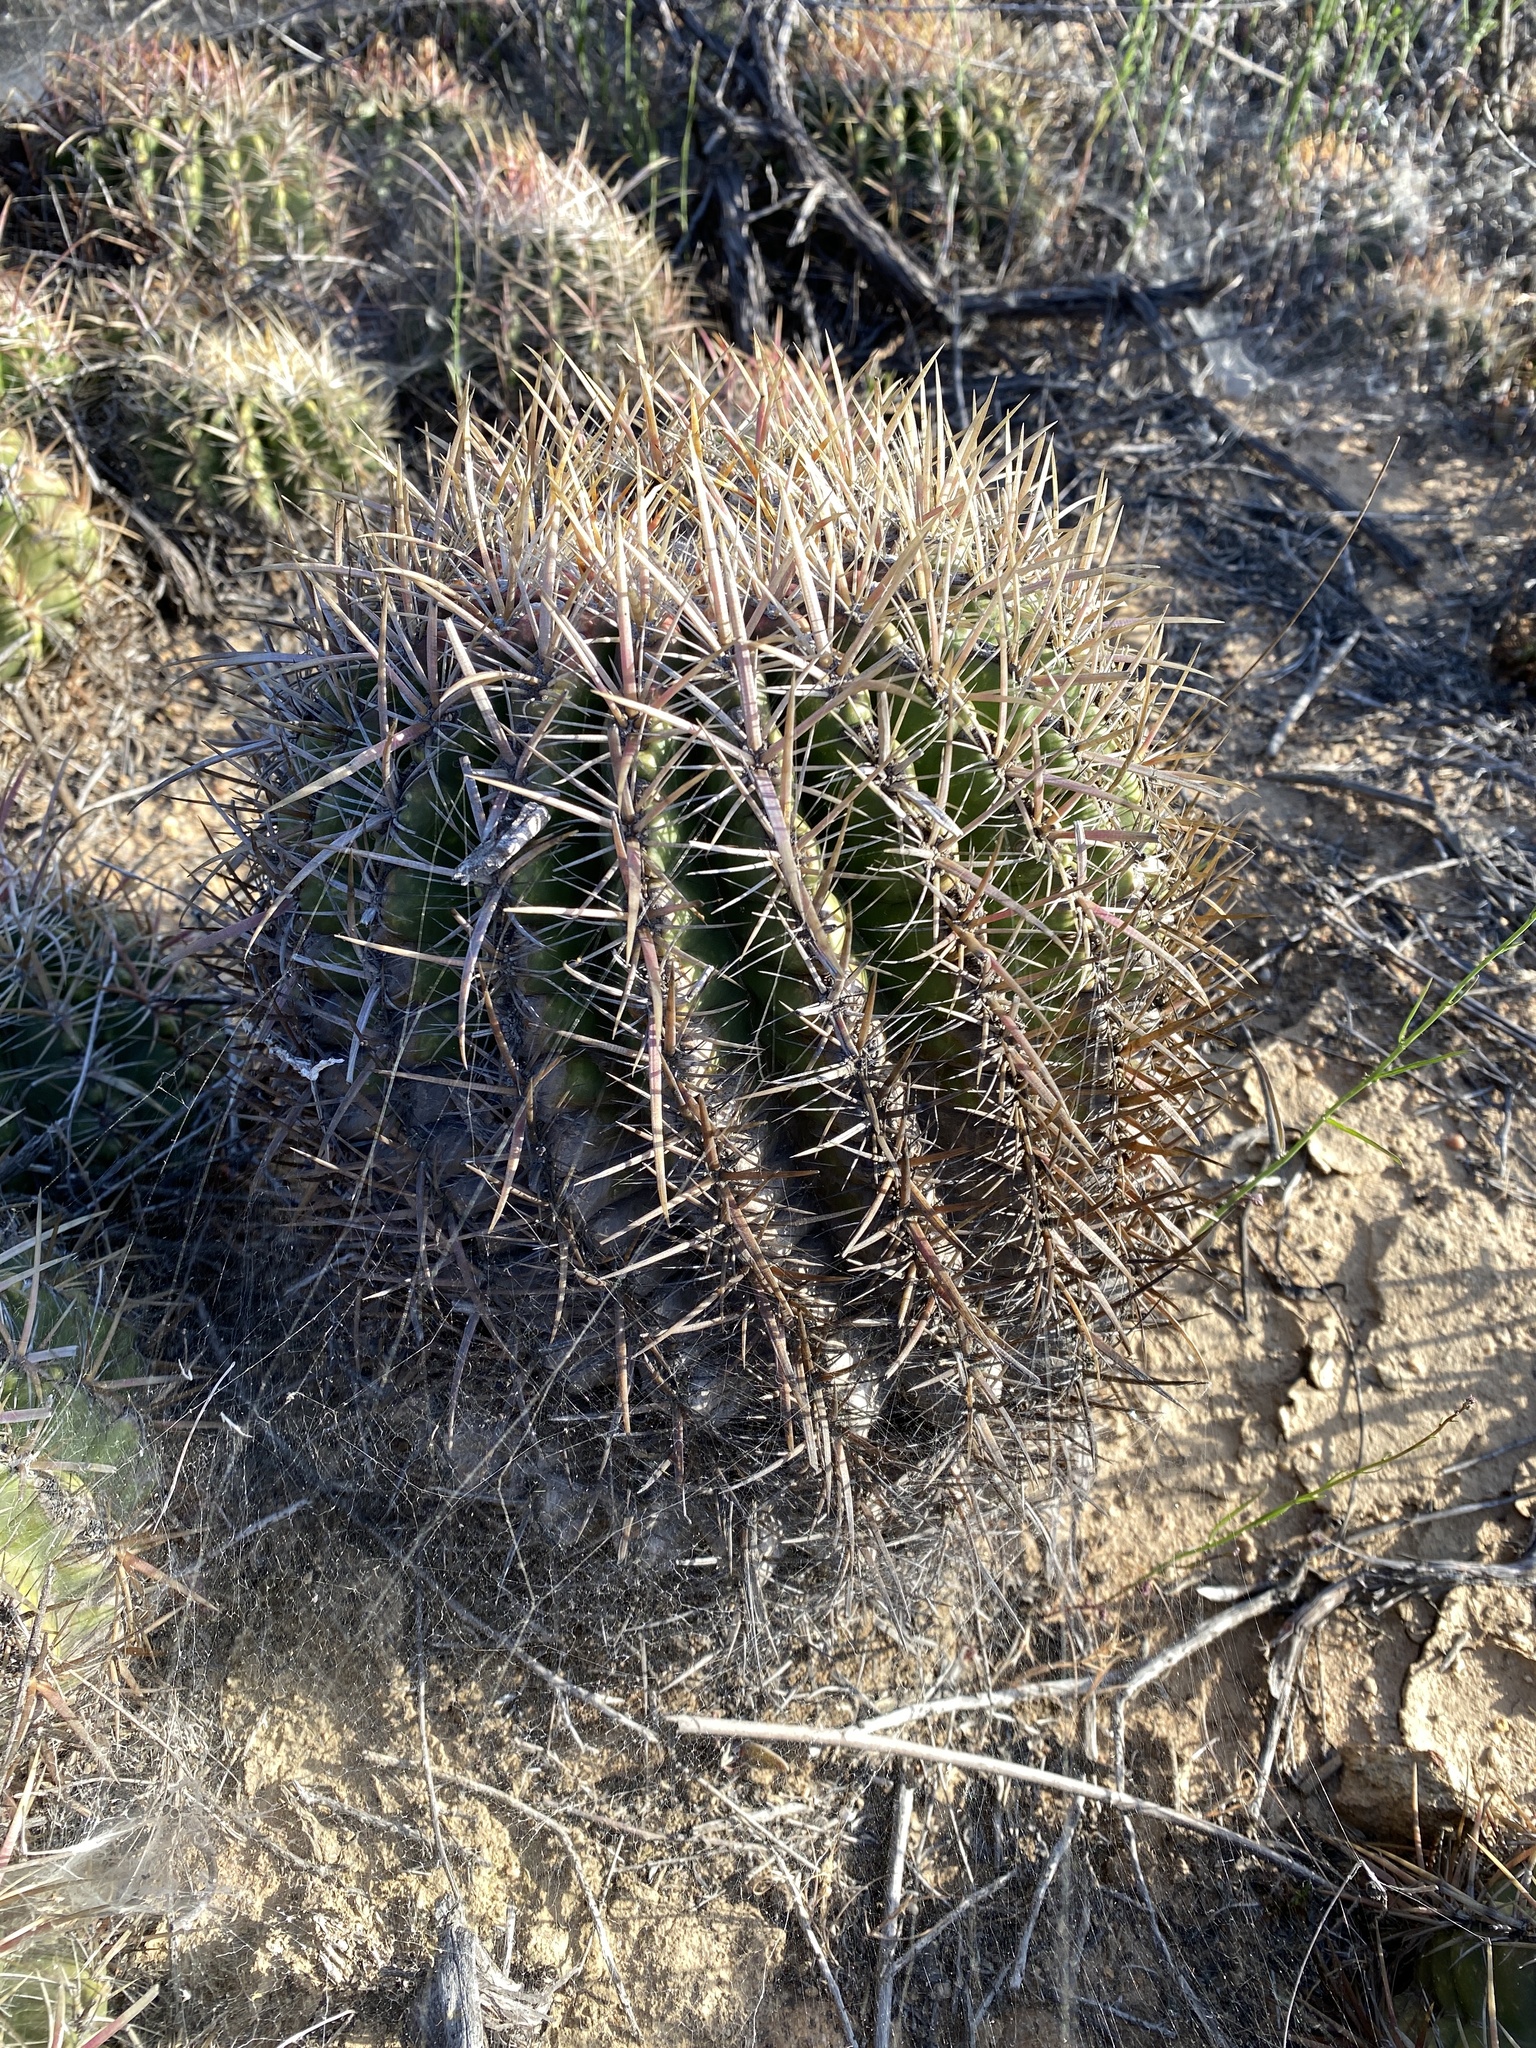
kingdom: Plantae
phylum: Tracheophyta
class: Magnoliopsida
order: Caryophyllales
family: Cactaceae
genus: Ferocactus
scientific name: Ferocactus viridescens
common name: San diego barrel cactus
